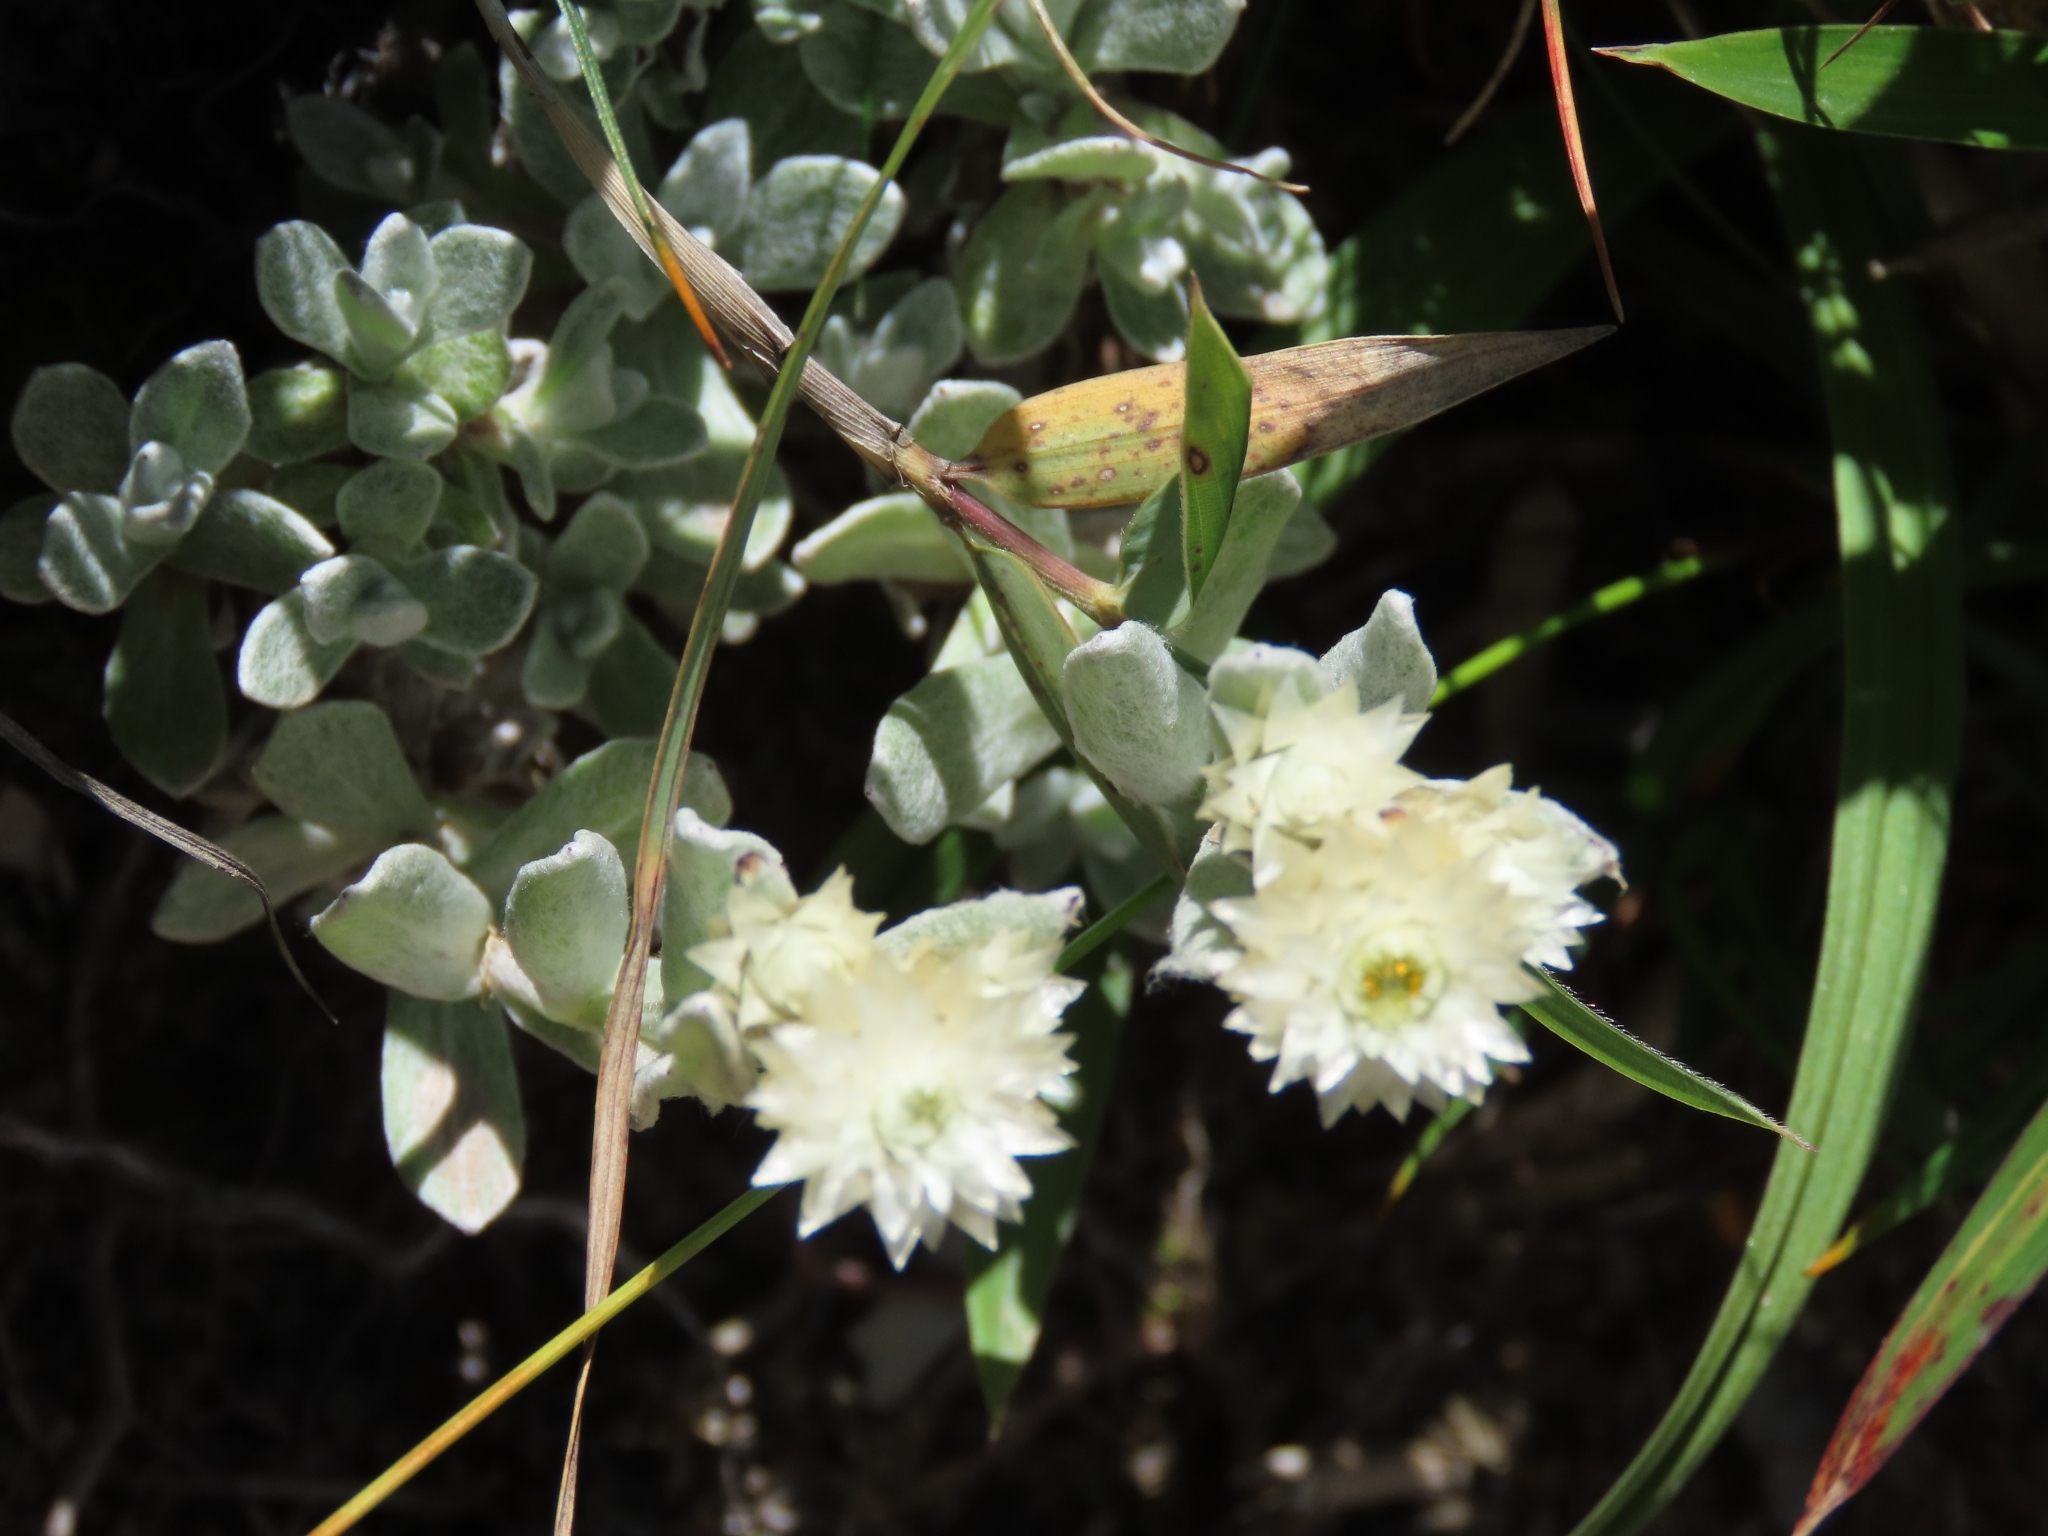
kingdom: Plantae
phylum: Tracheophyta
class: Magnoliopsida
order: Asterales
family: Asteraceae
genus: Anaphalis
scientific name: Anaphalis nepalensis
